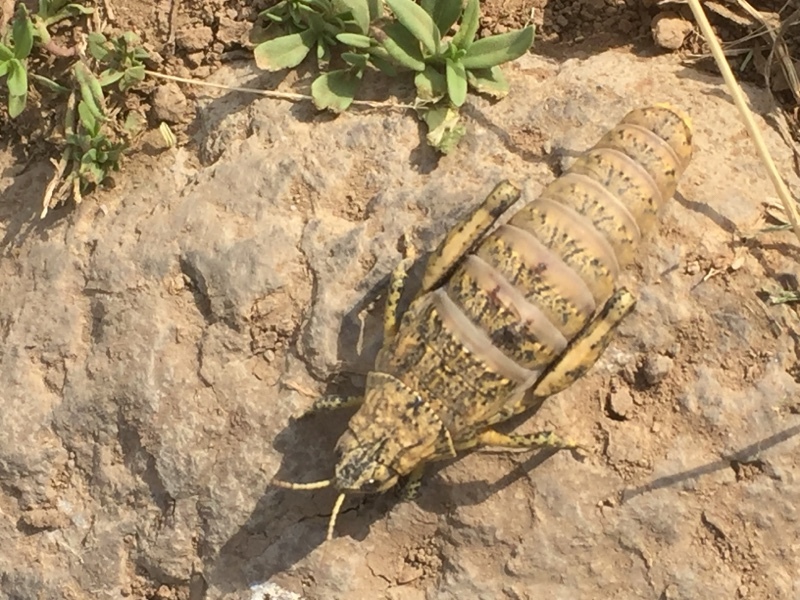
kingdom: Animalia
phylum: Arthropoda
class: Insecta
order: Orthoptera
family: Pamphagidae
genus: Nocaracris
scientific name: Nocaracris cyanipes
